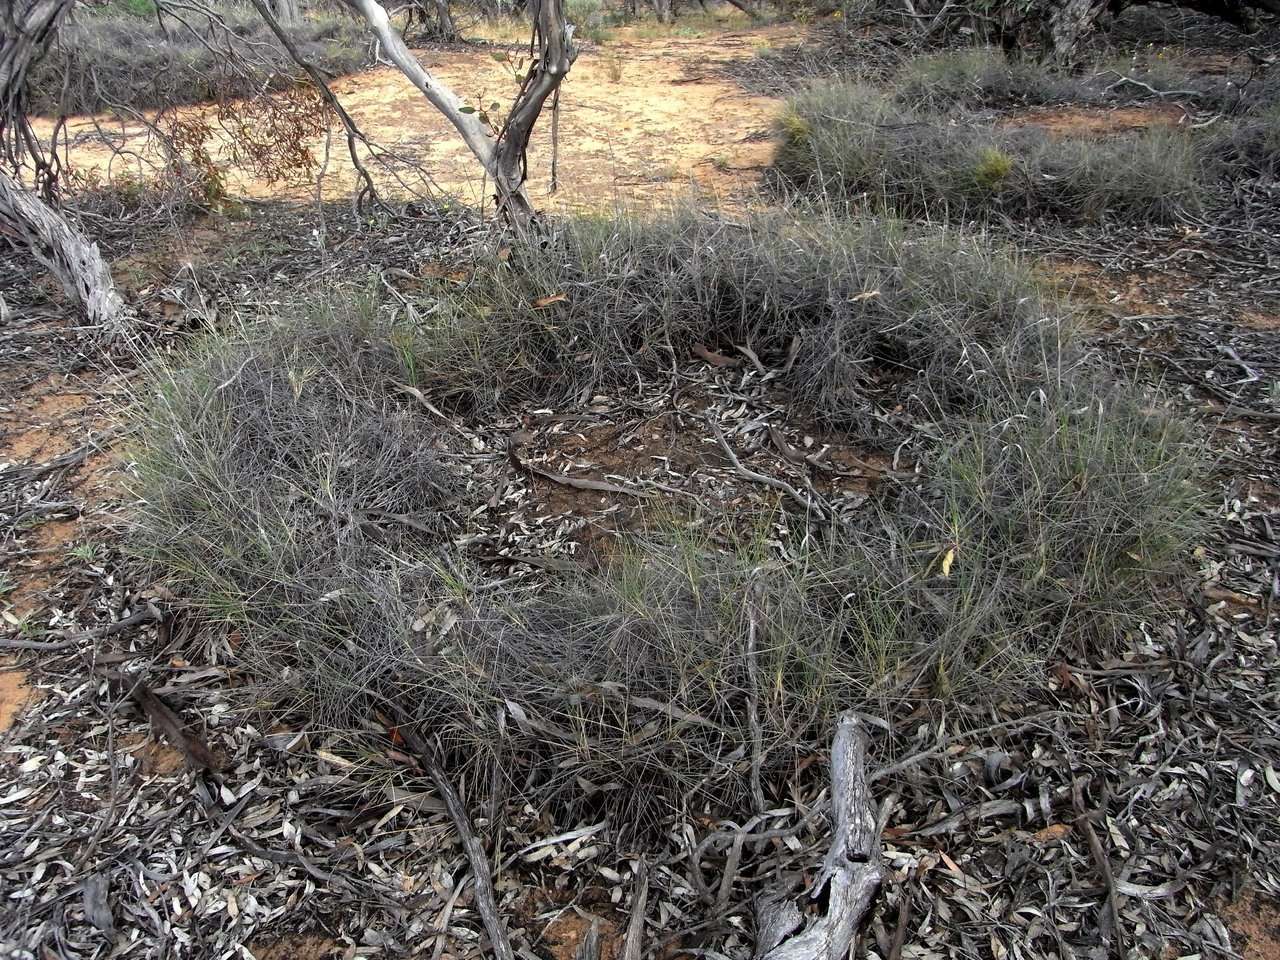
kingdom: Plantae
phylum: Tracheophyta
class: Liliopsida
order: Poales
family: Poaceae
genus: Triodia
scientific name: Triodia scariosa
